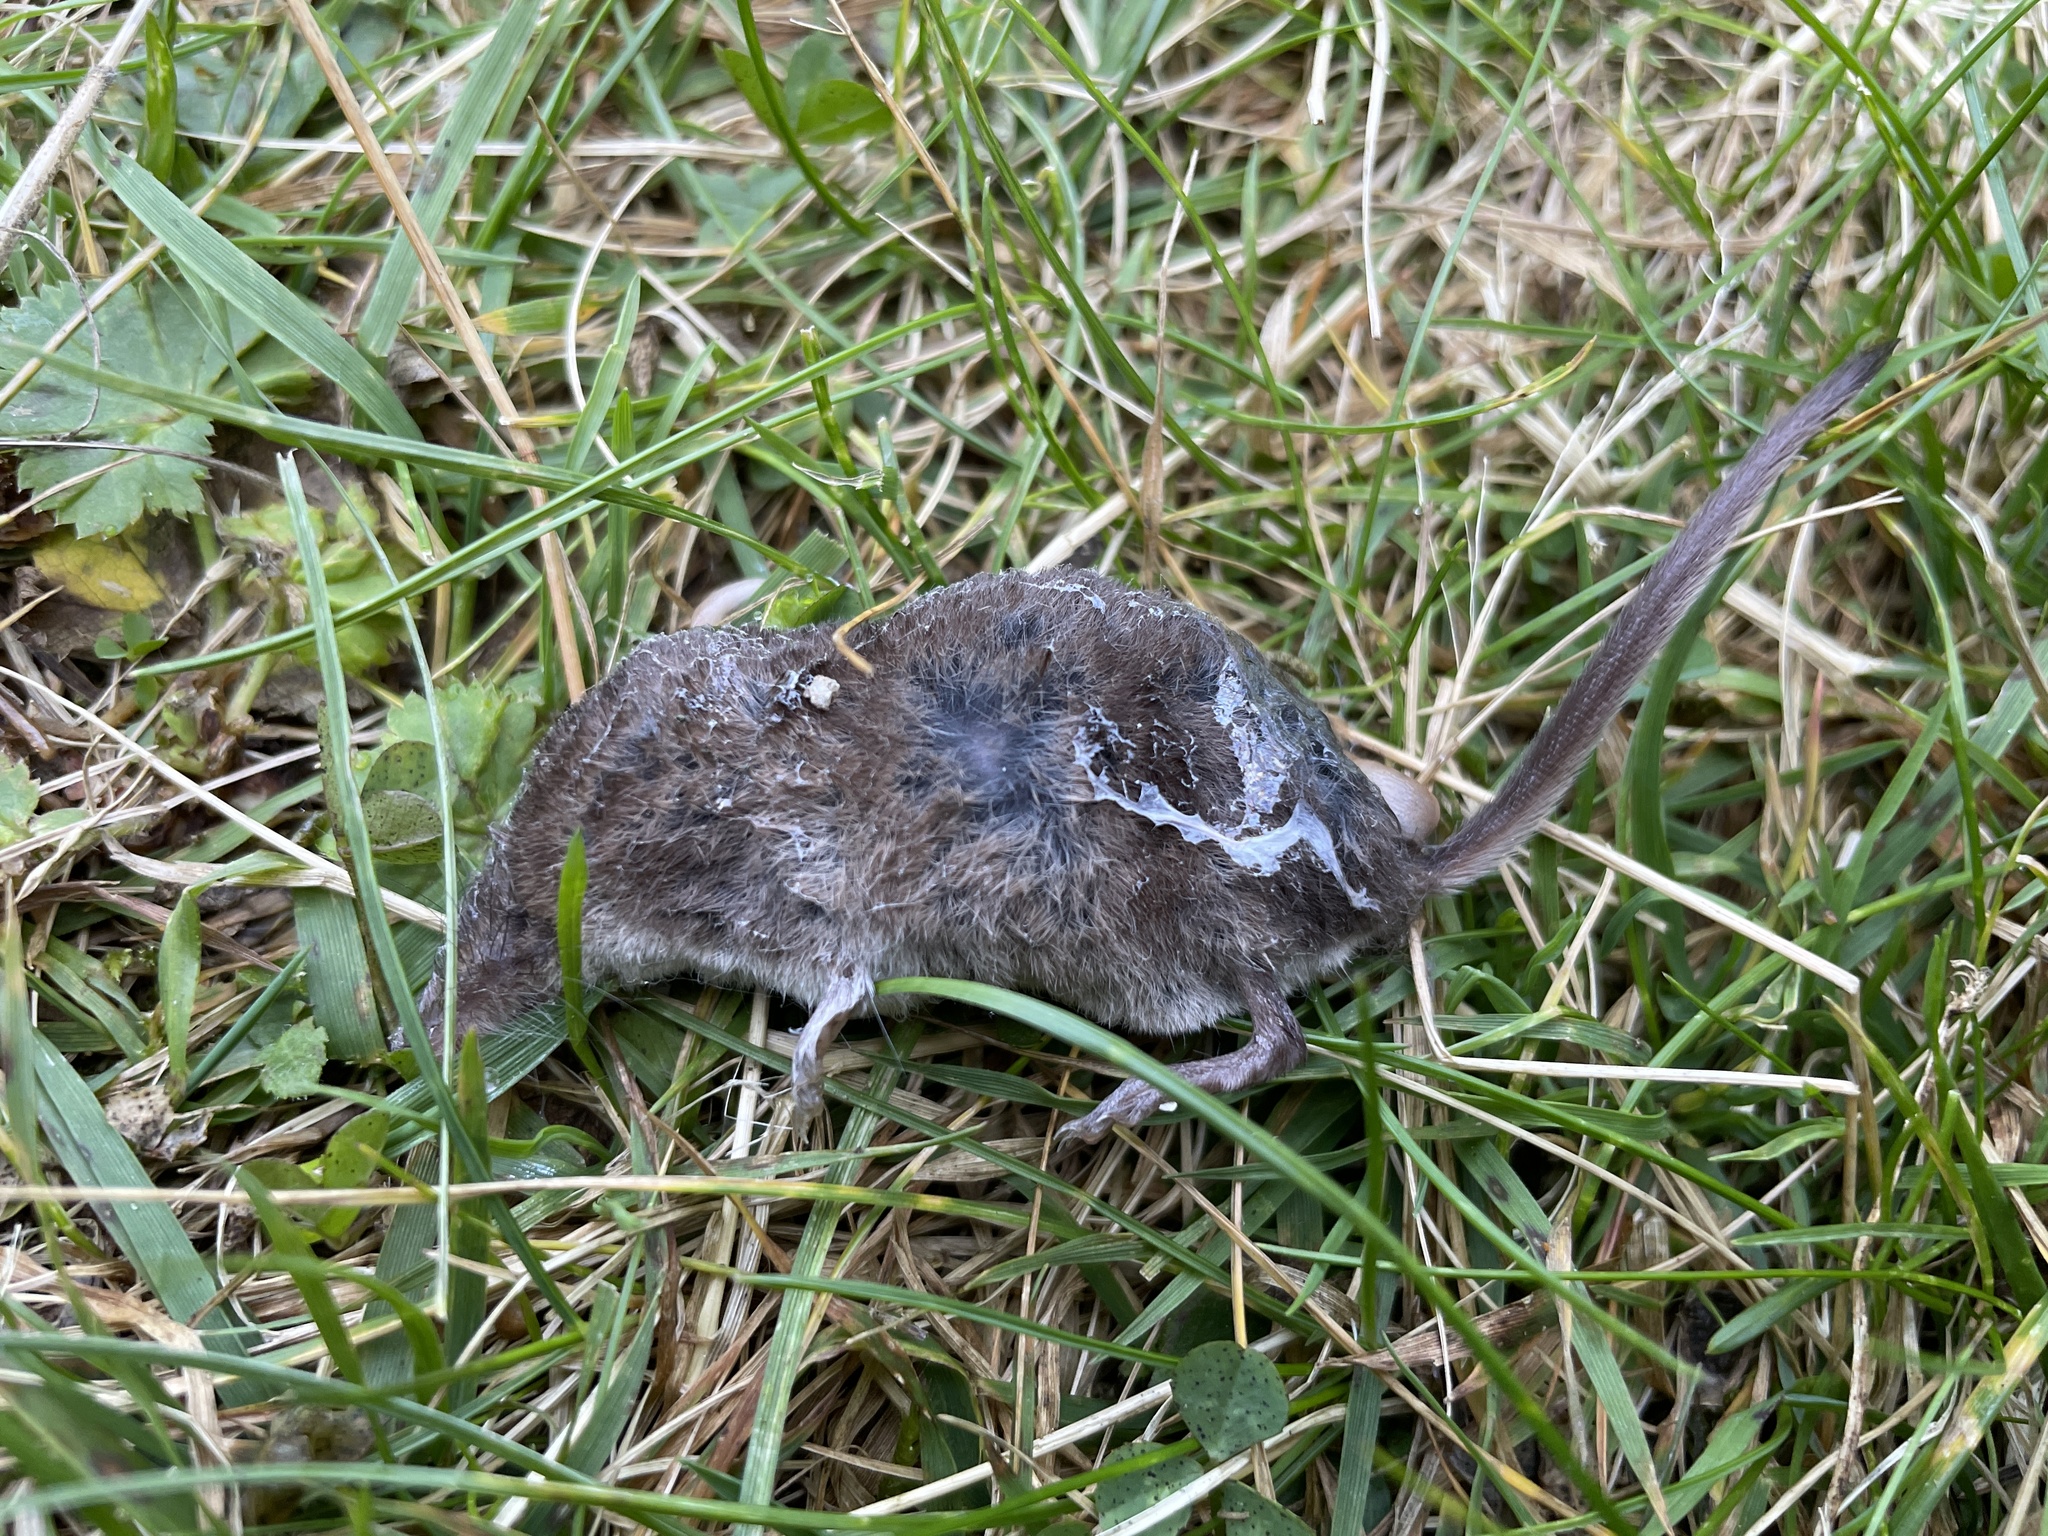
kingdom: Animalia
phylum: Chordata
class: Mammalia
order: Soricomorpha
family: Soricidae
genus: Sorex
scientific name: Sorex araneus
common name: Common shrew
